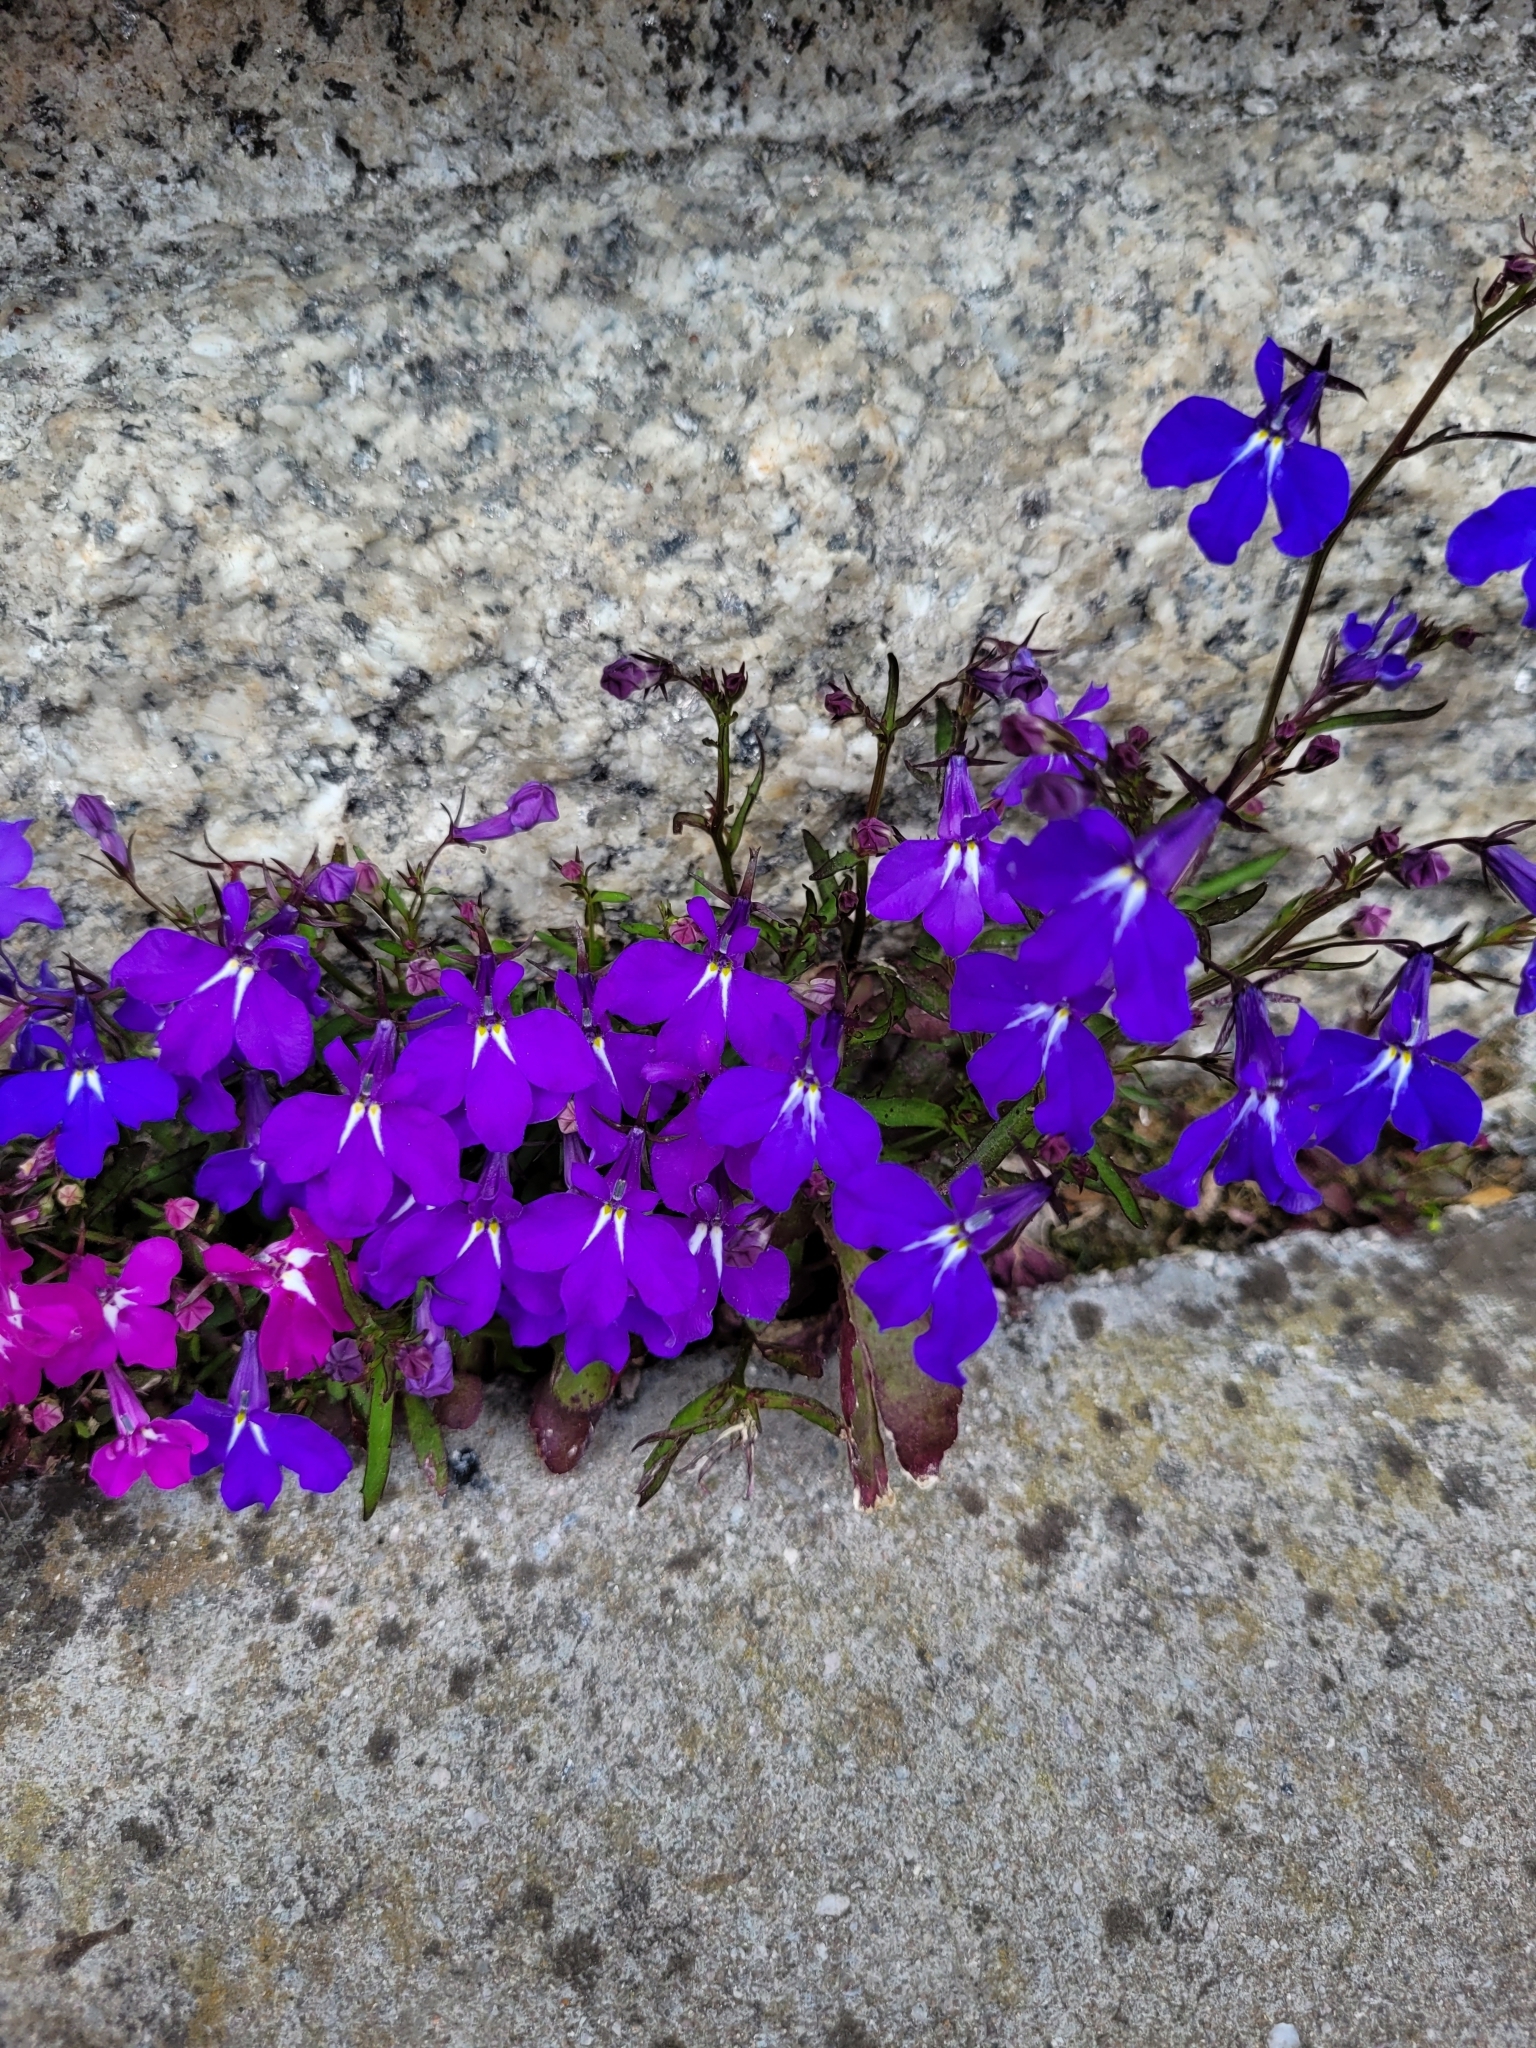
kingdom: Plantae
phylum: Tracheophyta
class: Magnoliopsida
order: Asterales
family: Campanulaceae
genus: Lobelia
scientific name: Lobelia erinus
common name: Edging lobelia
